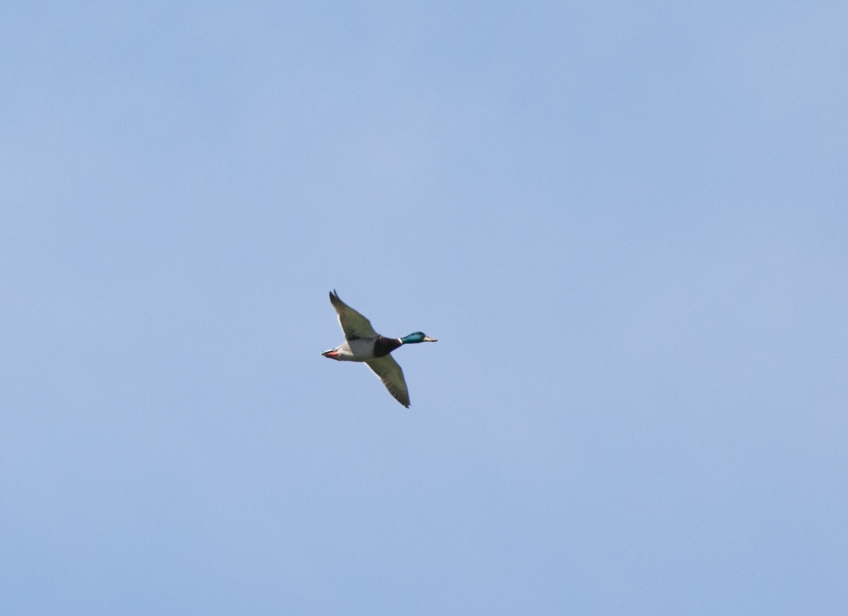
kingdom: Animalia
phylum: Chordata
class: Aves
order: Anseriformes
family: Anatidae
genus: Anas
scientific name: Anas platyrhynchos
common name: Mallard
